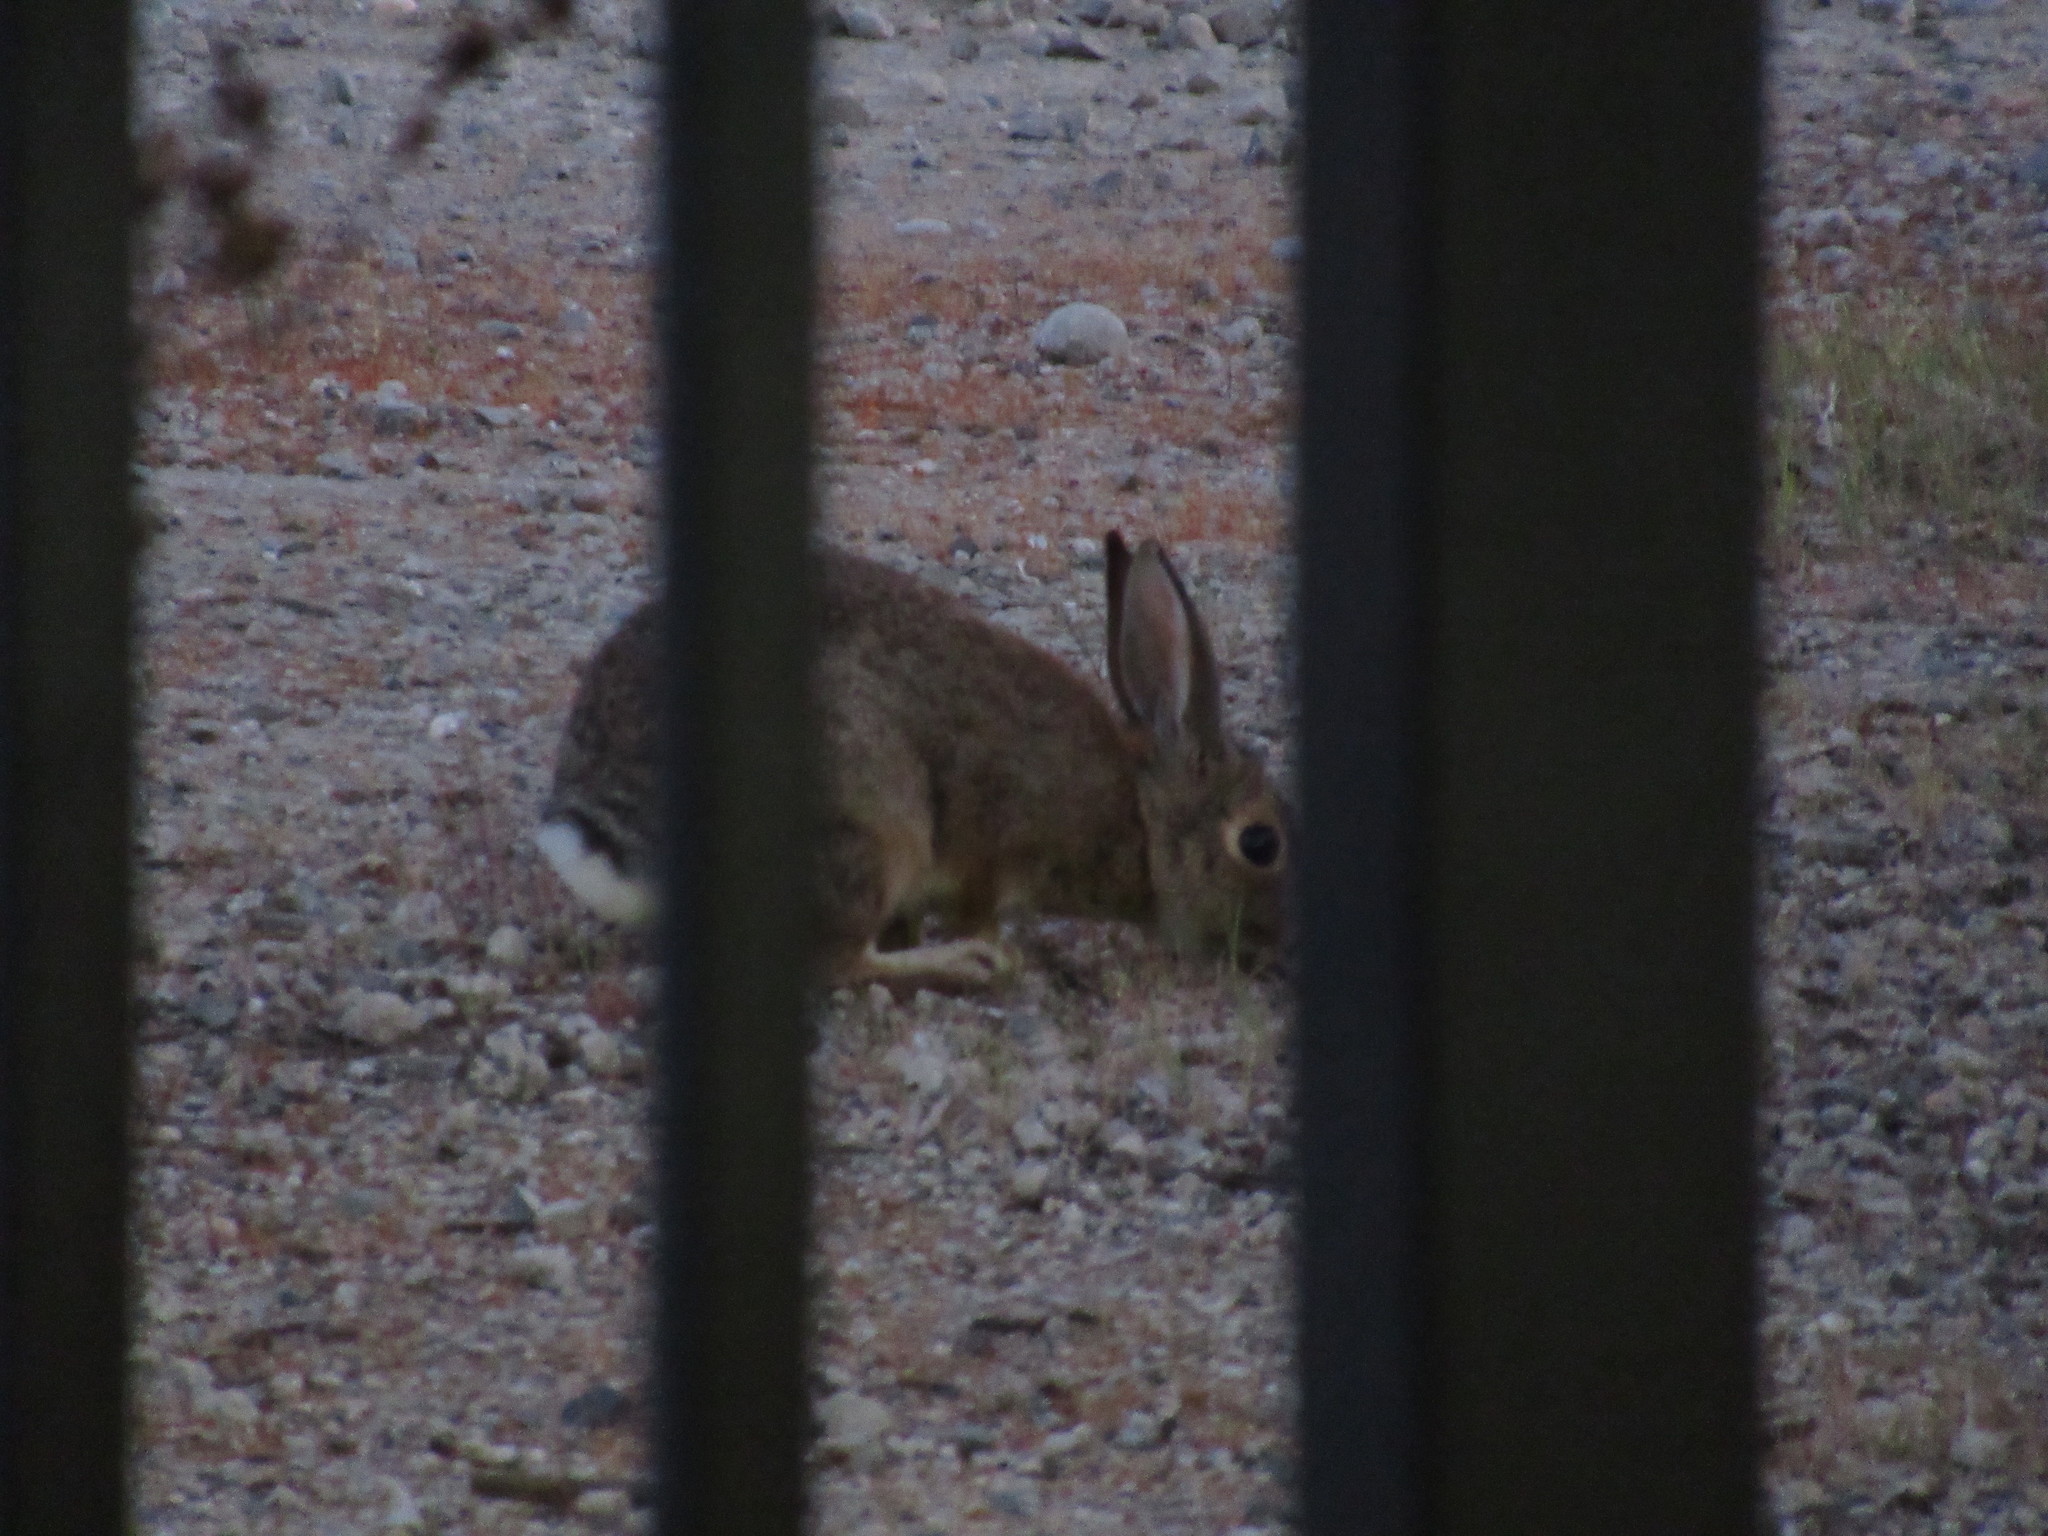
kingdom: Animalia
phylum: Chordata
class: Mammalia
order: Lagomorpha
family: Leporidae
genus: Sylvilagus
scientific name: Sylvilagus audubonii
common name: Desert cottontail
